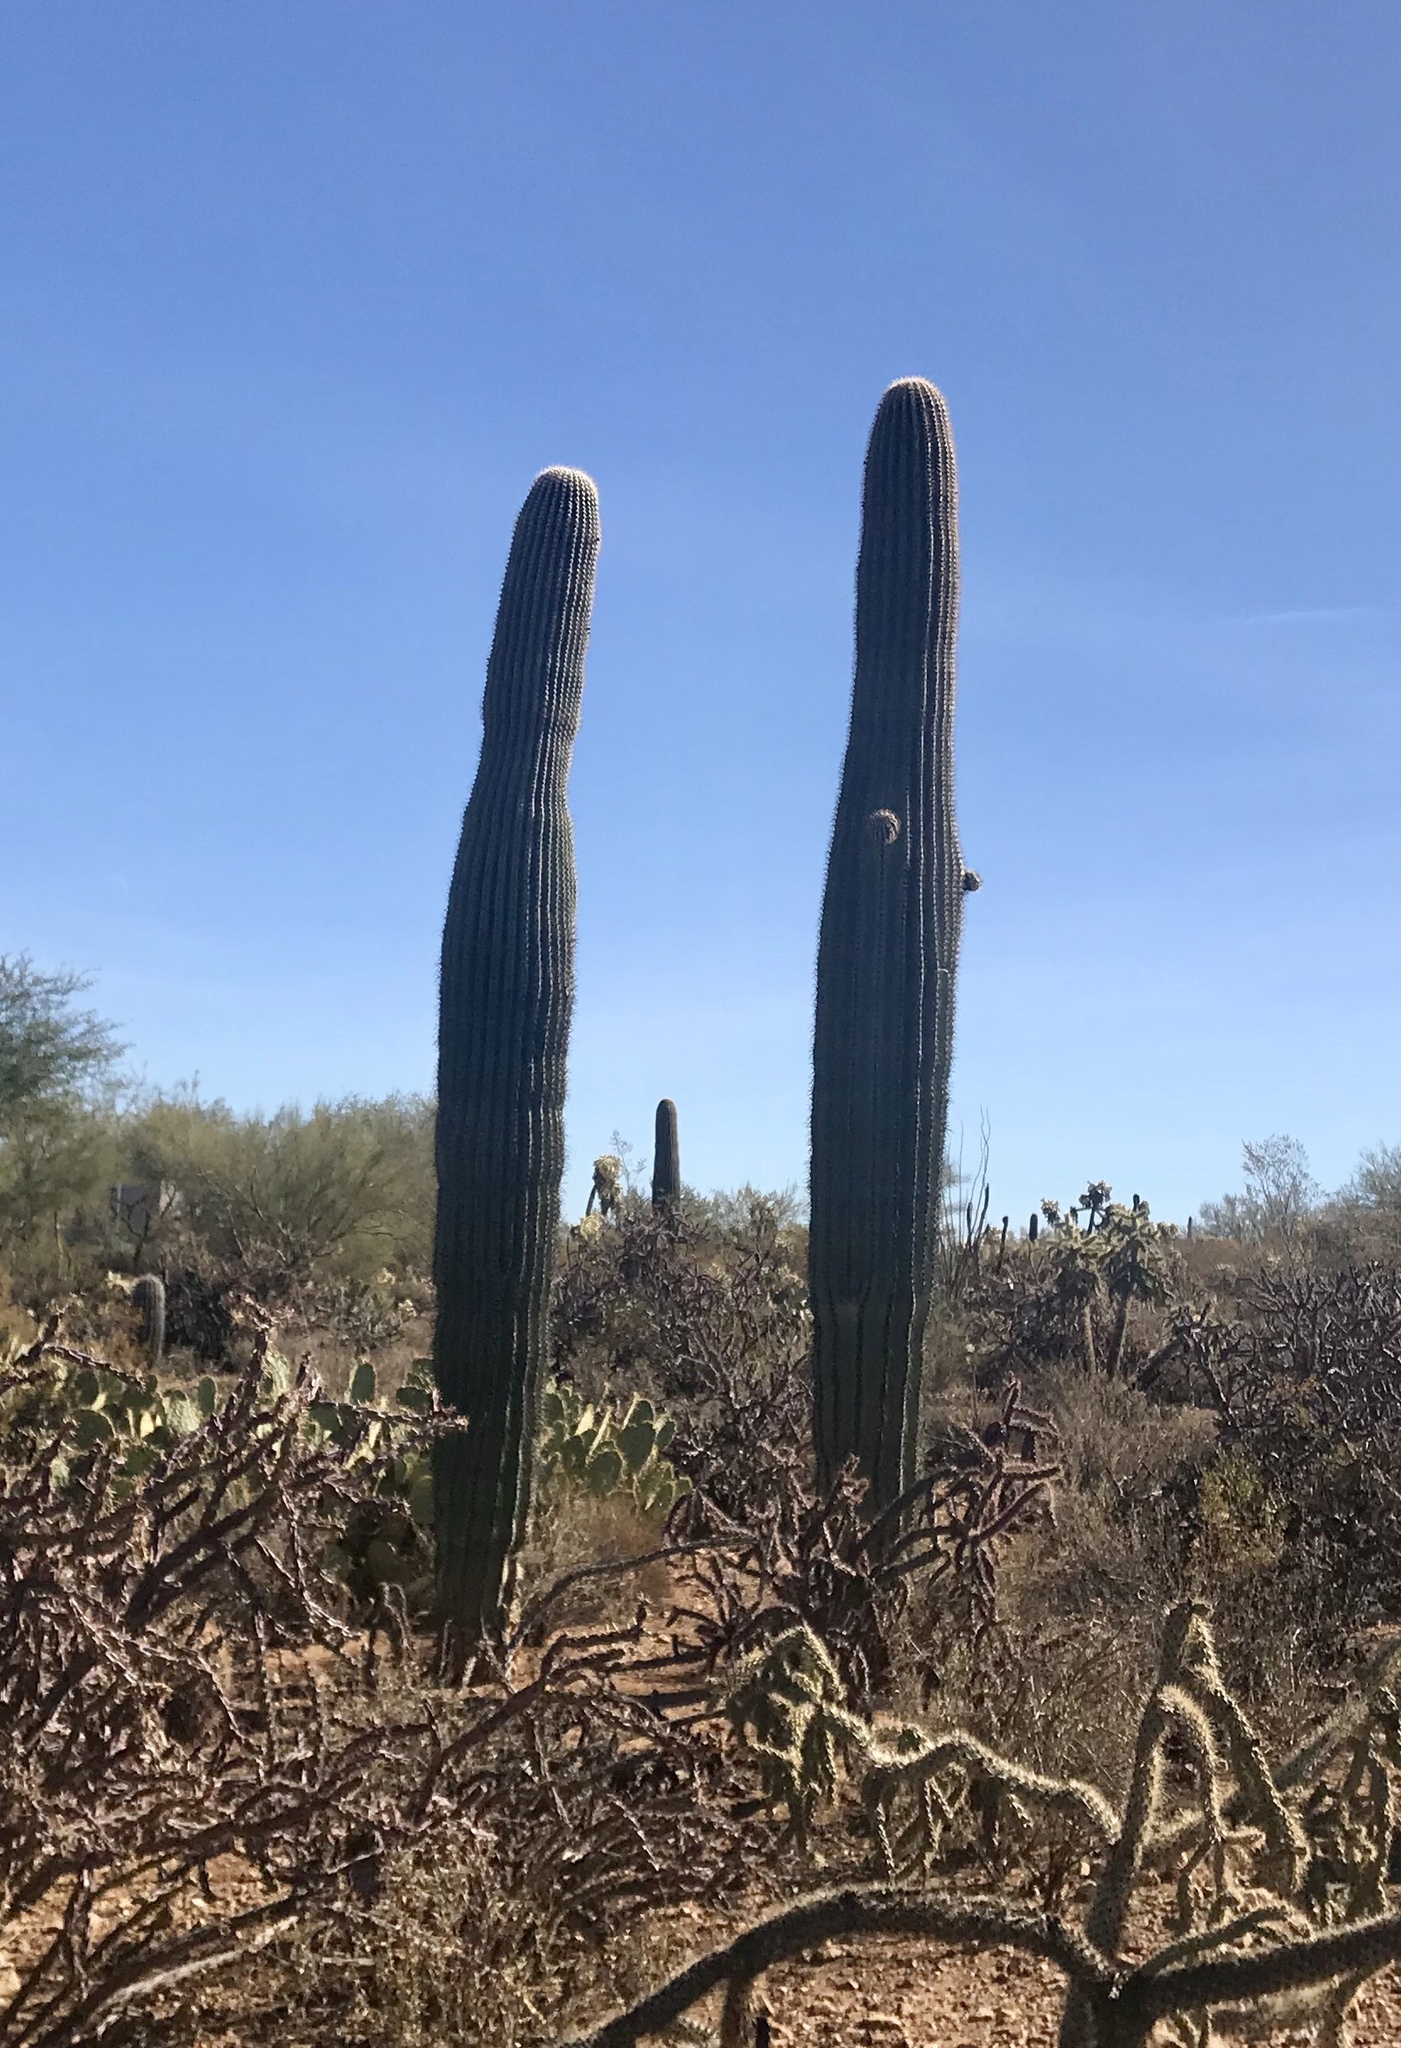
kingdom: Plantae
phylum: Tracheophyta
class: Magnoliopsida
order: Caryophyllales
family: Cactaceae
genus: Carnegiea
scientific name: Carnegiea gigantea
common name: Saguaro
